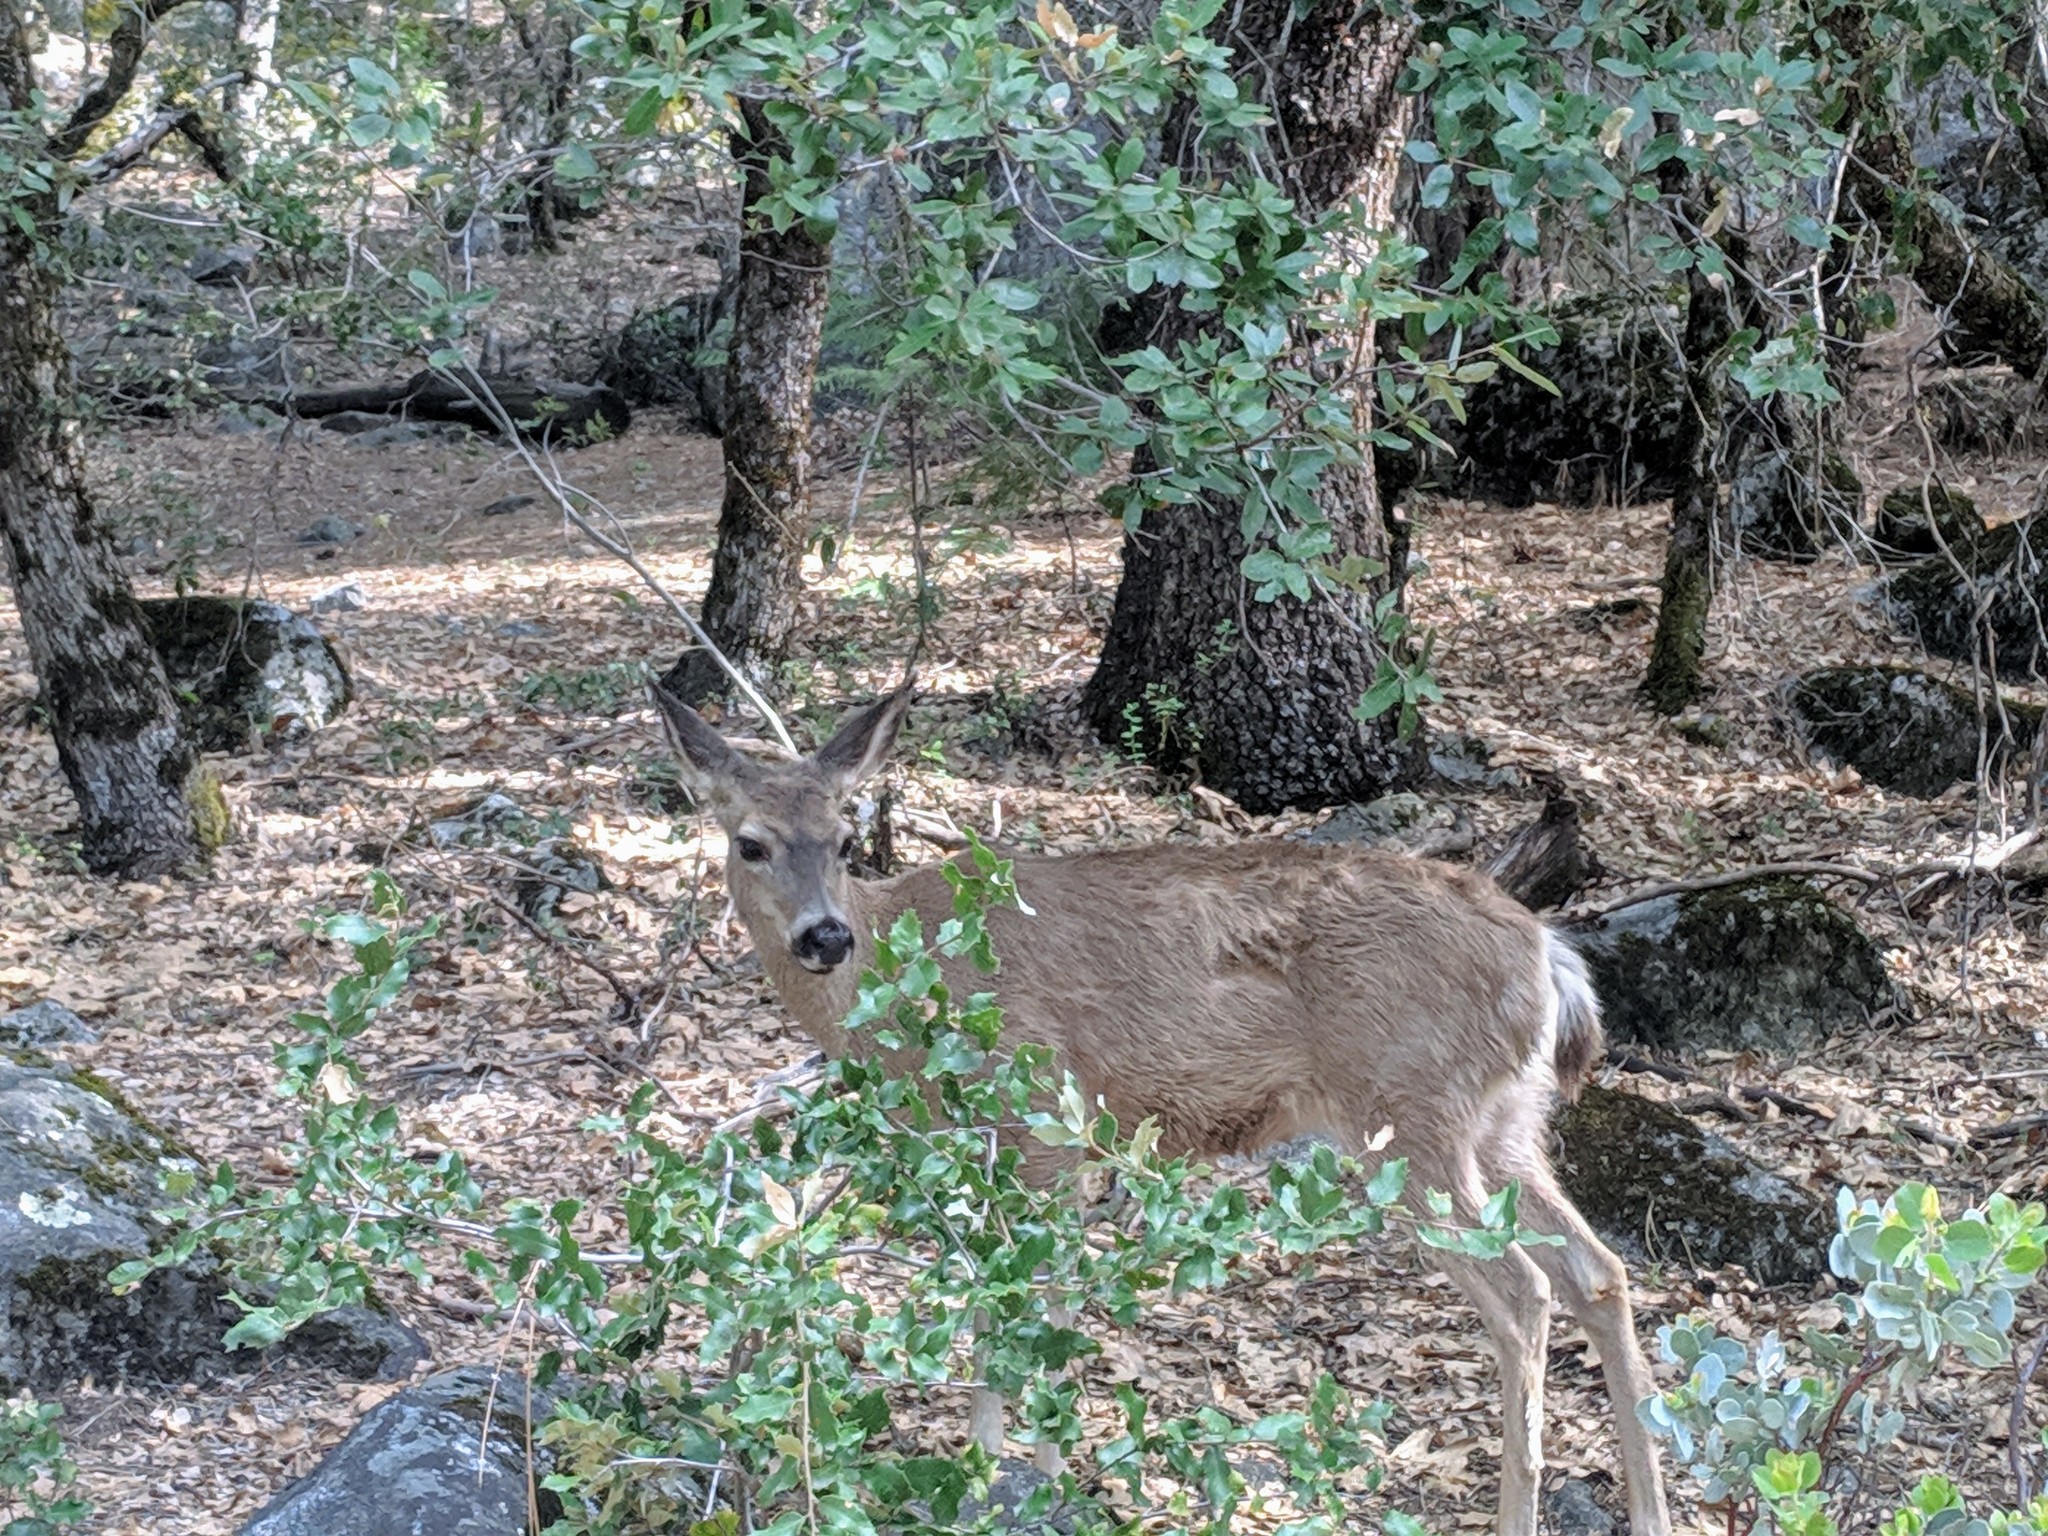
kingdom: Animalia
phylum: Chordata
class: Mammalia
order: Artiodactyla
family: Cervidae
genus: Odocoileus
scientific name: Odocoileus hemionus
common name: Mule deer
